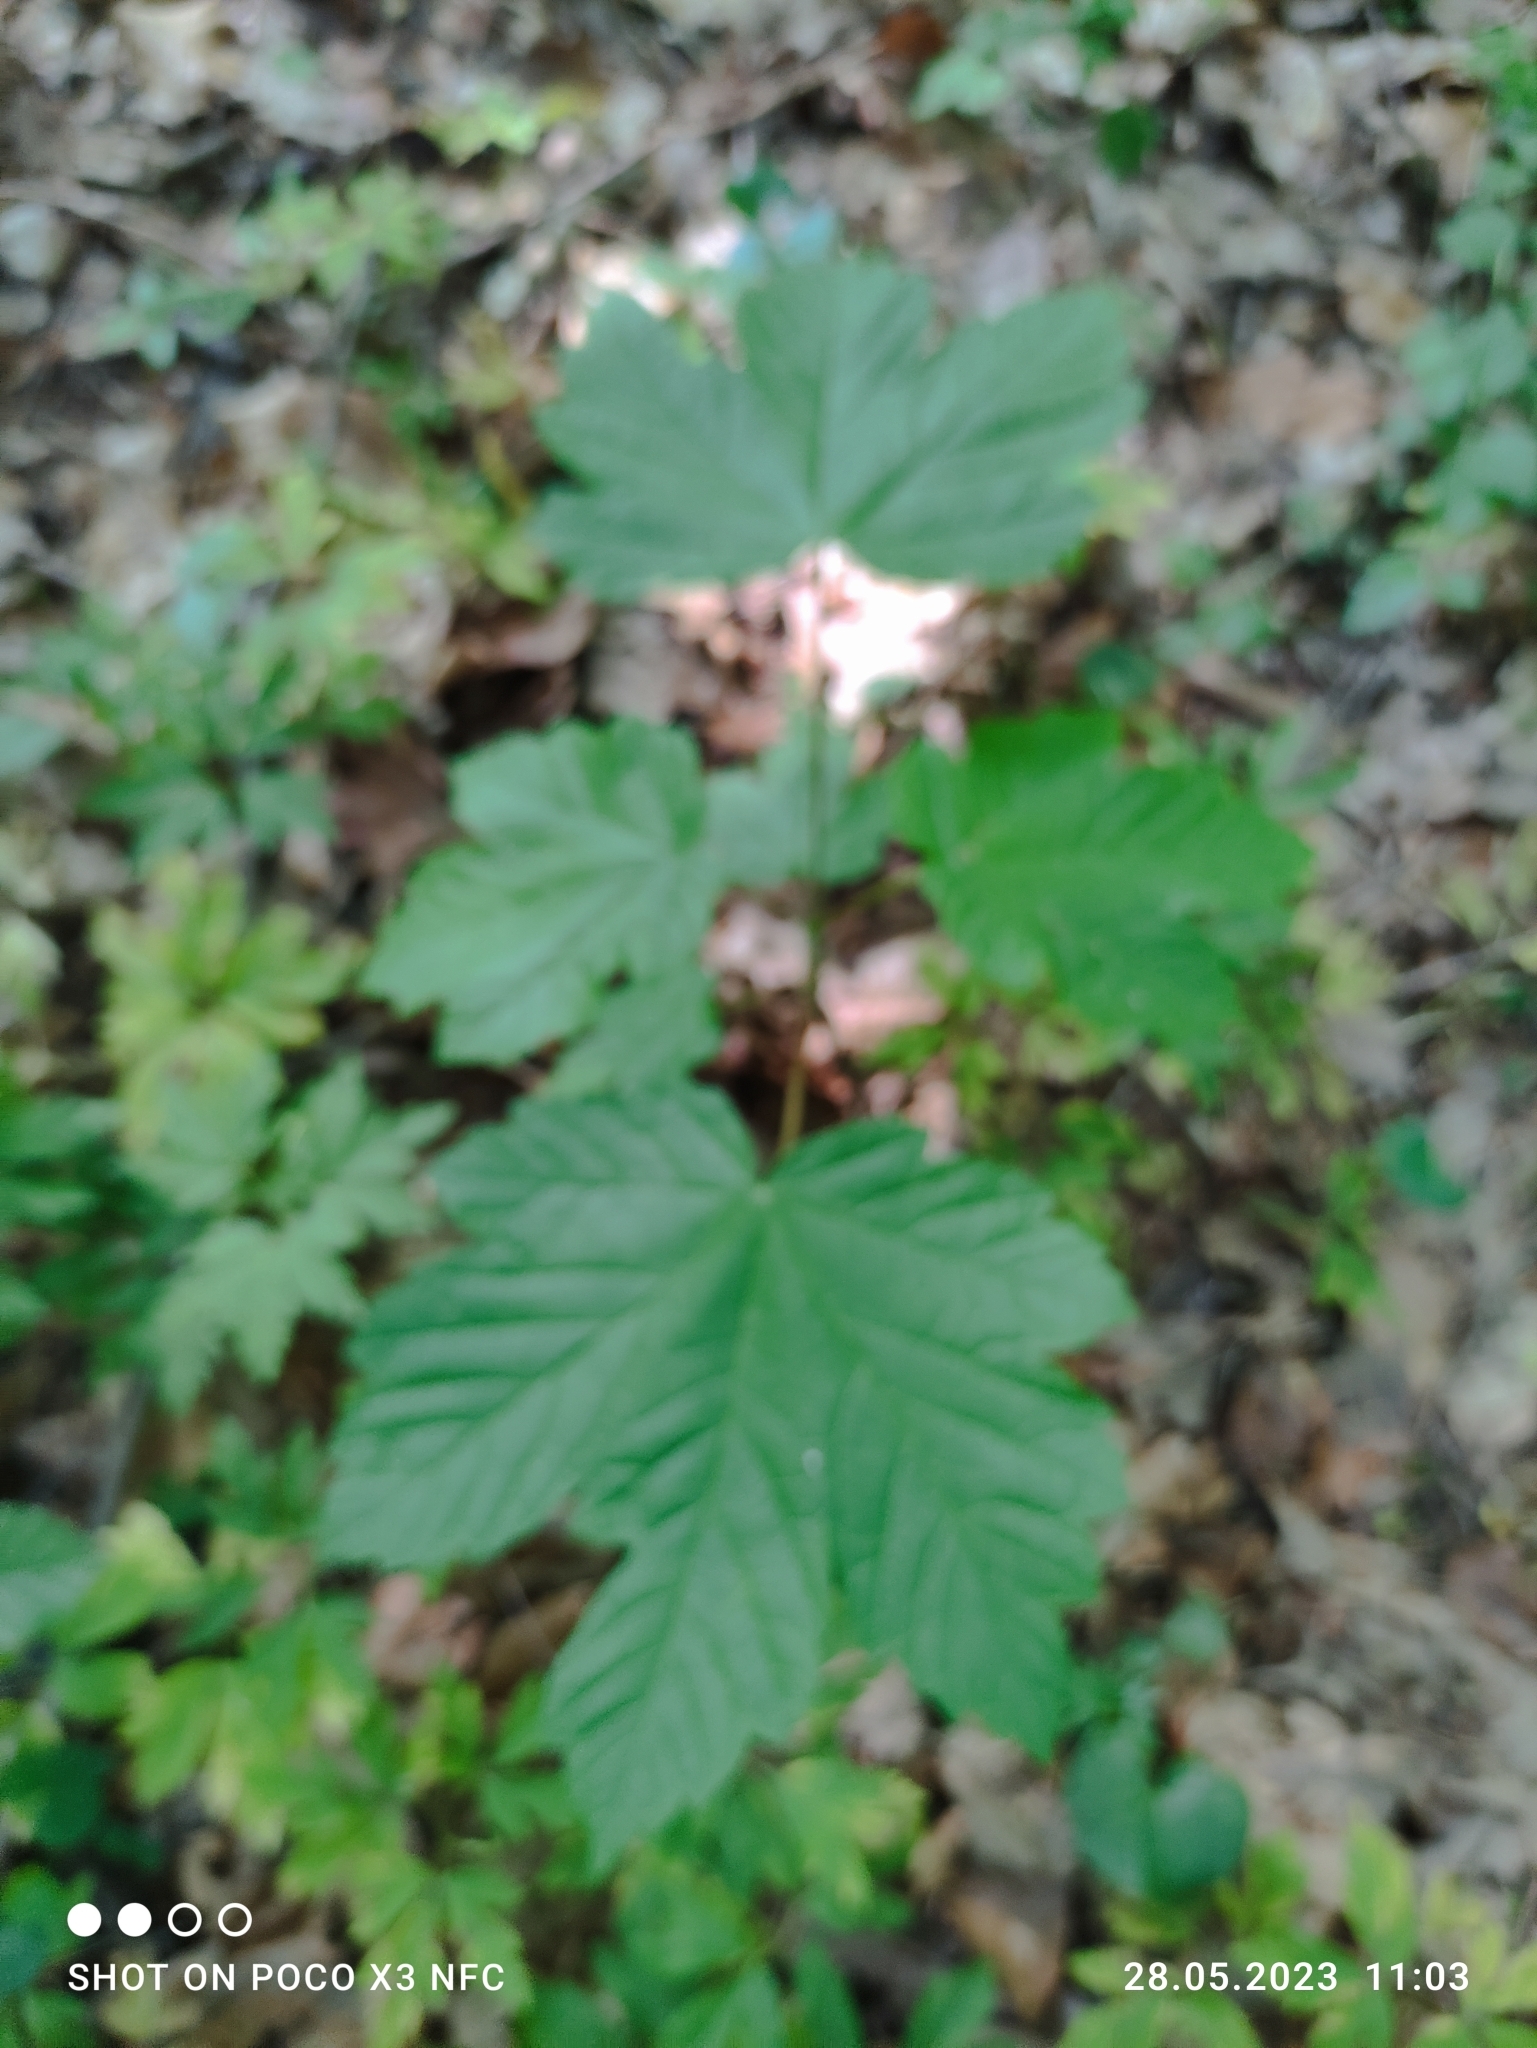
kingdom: Plantae
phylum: Tracheophyta
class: Magnoliopsida
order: Sapindales
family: Sapindaceae
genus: Acer
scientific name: Acer pseudoplatanus
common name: Sycamore
